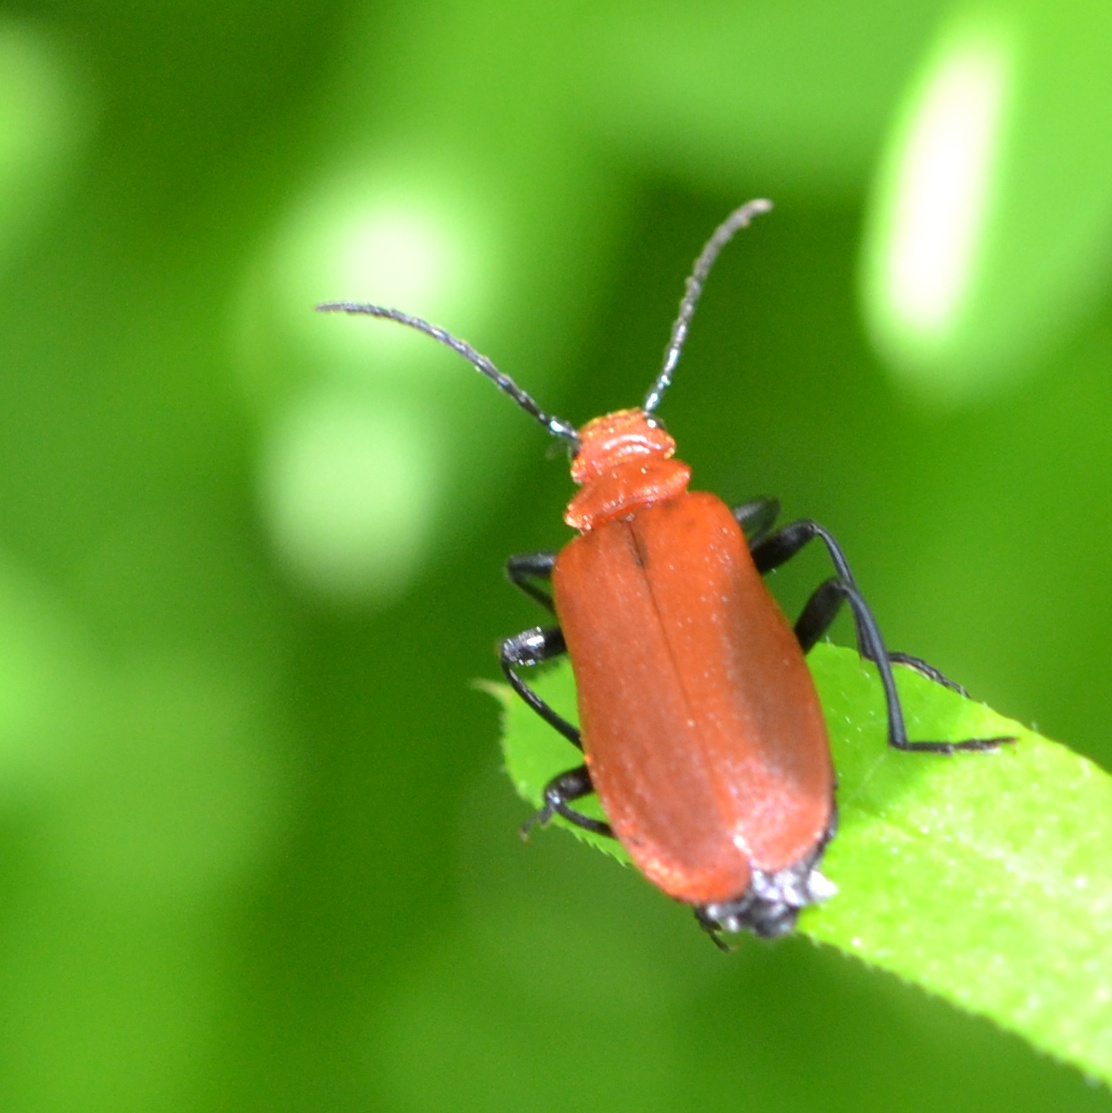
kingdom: Animalia
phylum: Arthropoda
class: Insecta
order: Coleoptera
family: Pyrochroidae
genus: Pyrochroa
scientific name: Pyrochroa serraticornis
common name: Red-headed cardinal beetle
